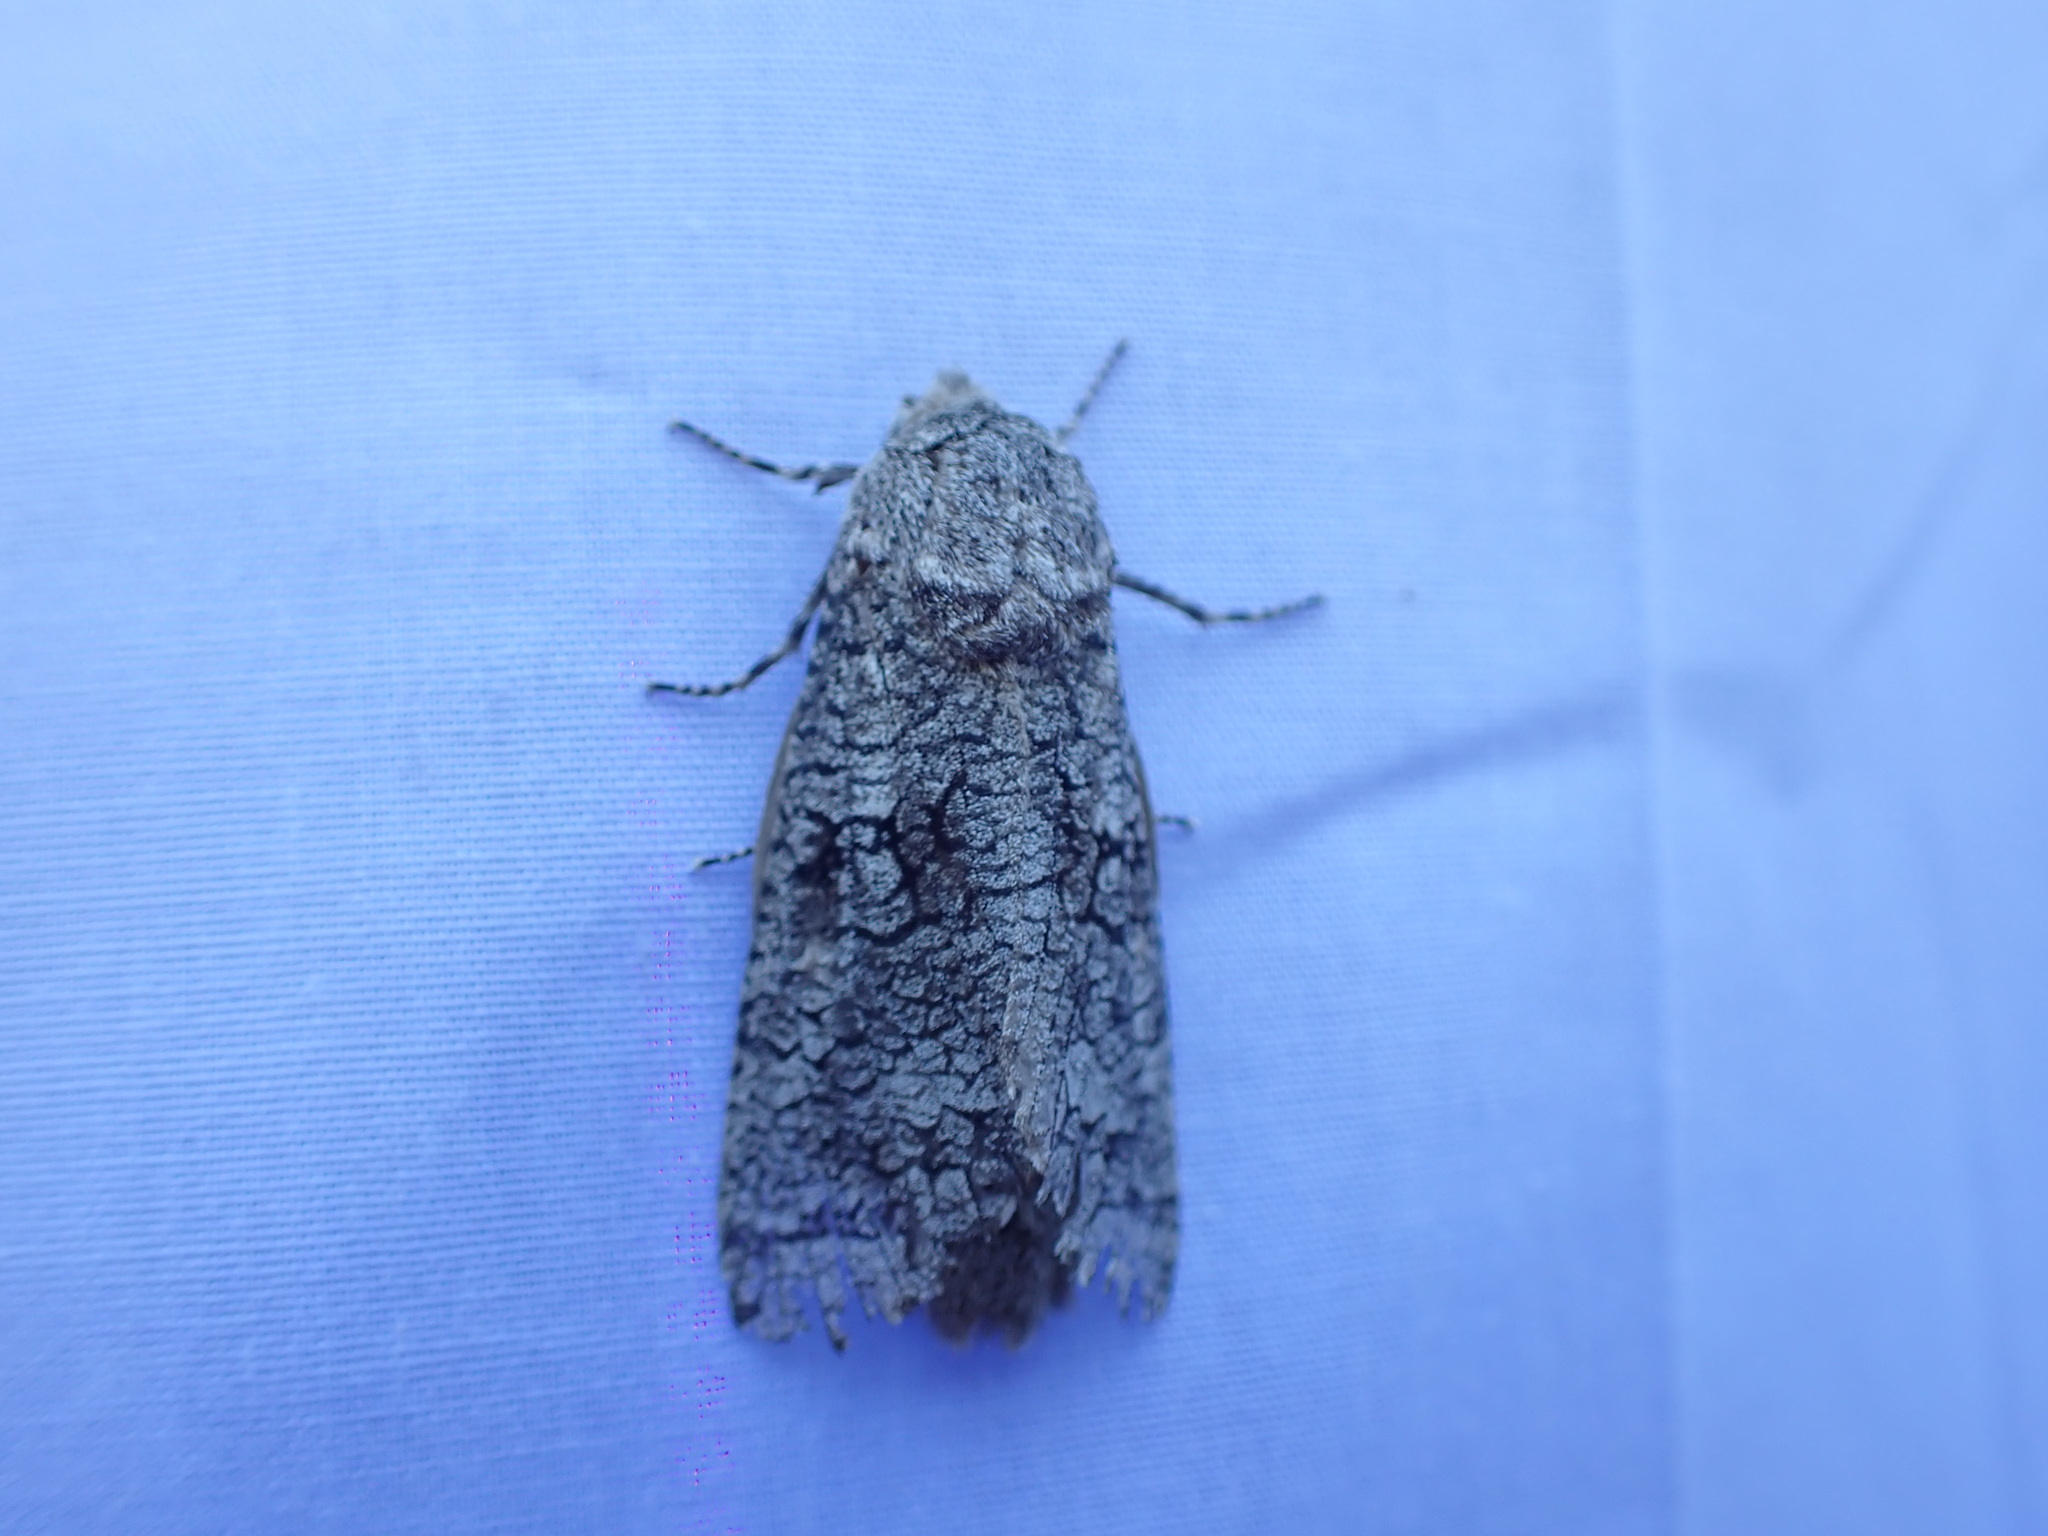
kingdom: Animalia
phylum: Arthropoda
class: Insecta
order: Lepidoptera
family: Cossidae
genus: Acossus
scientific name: Acossus populi
